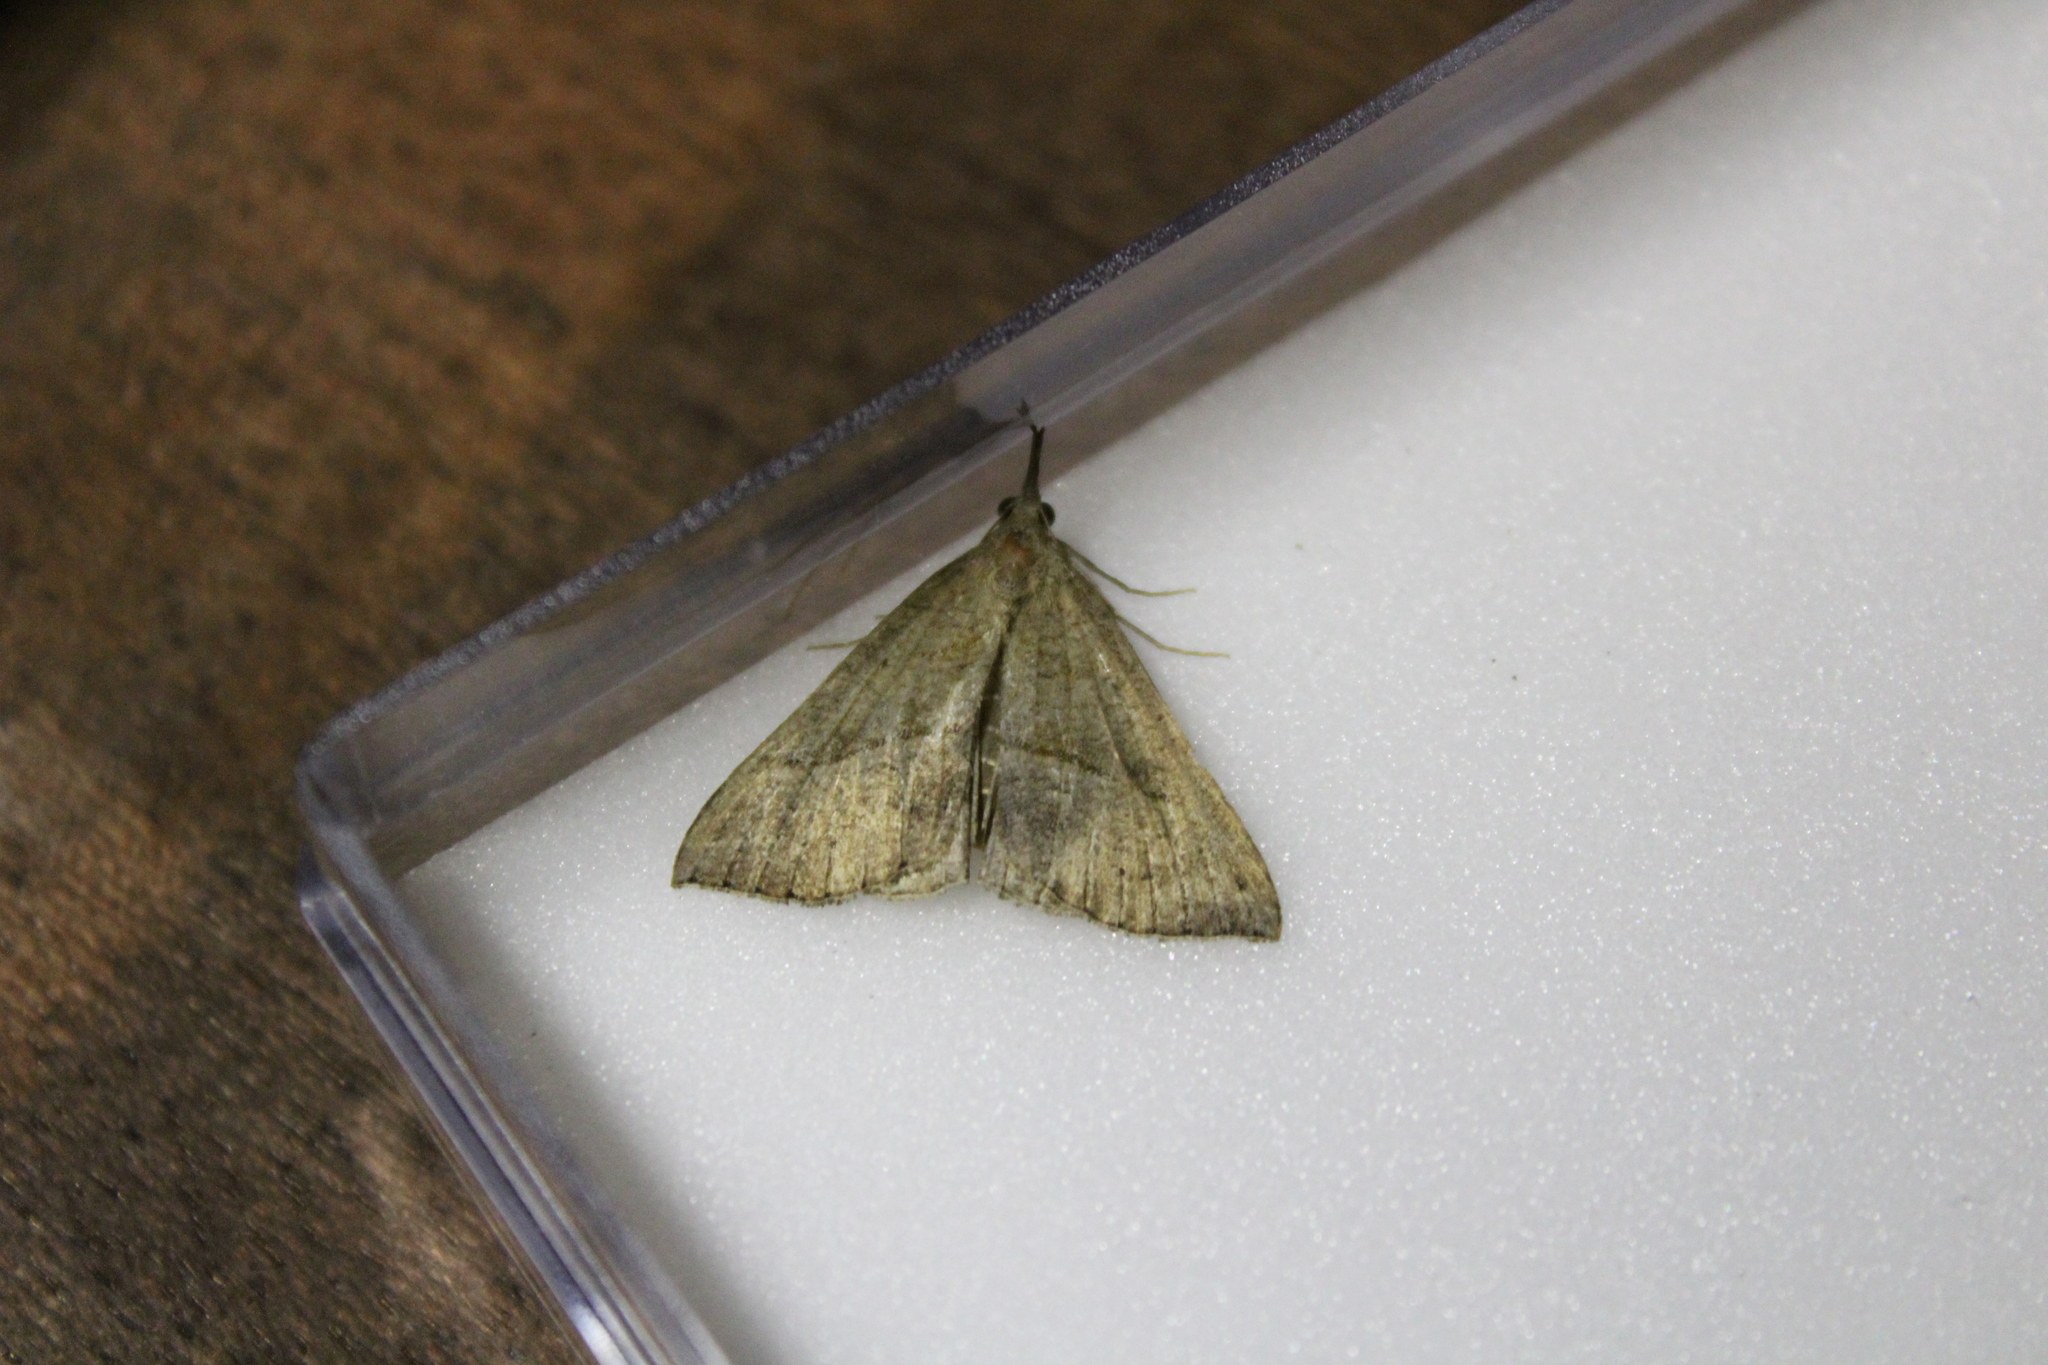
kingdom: Animalia
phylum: Arthropoda
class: Insecta
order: Lepidoptera
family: Erebidae
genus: Hypena
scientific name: Hypena proboscidalis
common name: Snout
